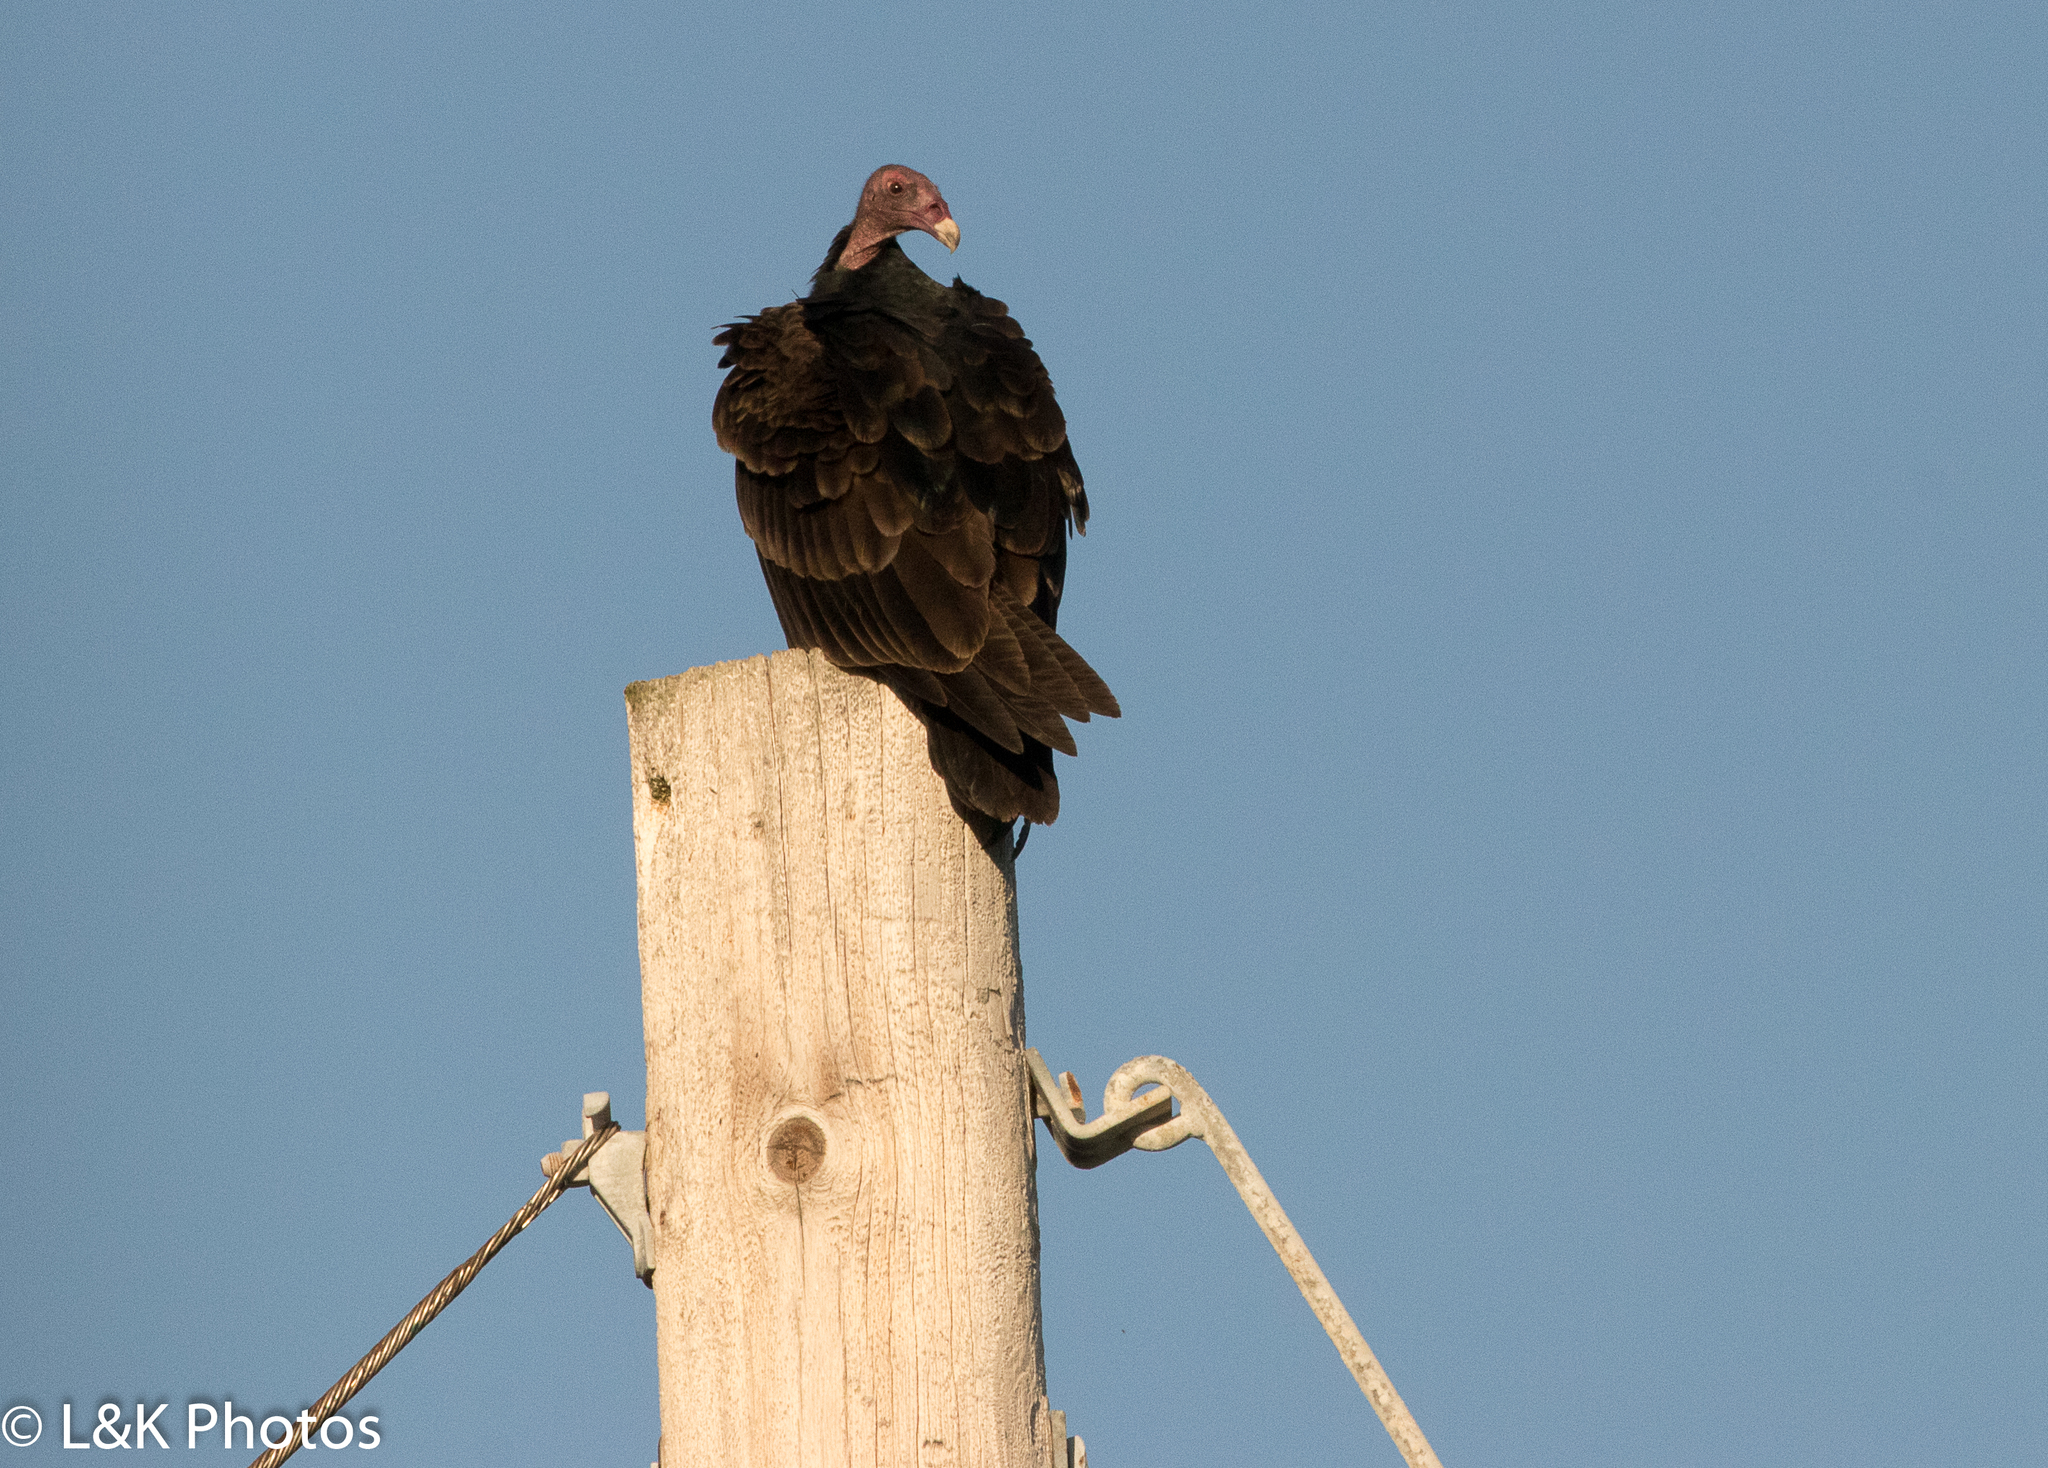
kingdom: Animalia
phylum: Chordata
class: Aves
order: Accipitriformes
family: Cathartidae
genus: Cathartes
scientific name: Cathartes aura
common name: Turkey vulture
